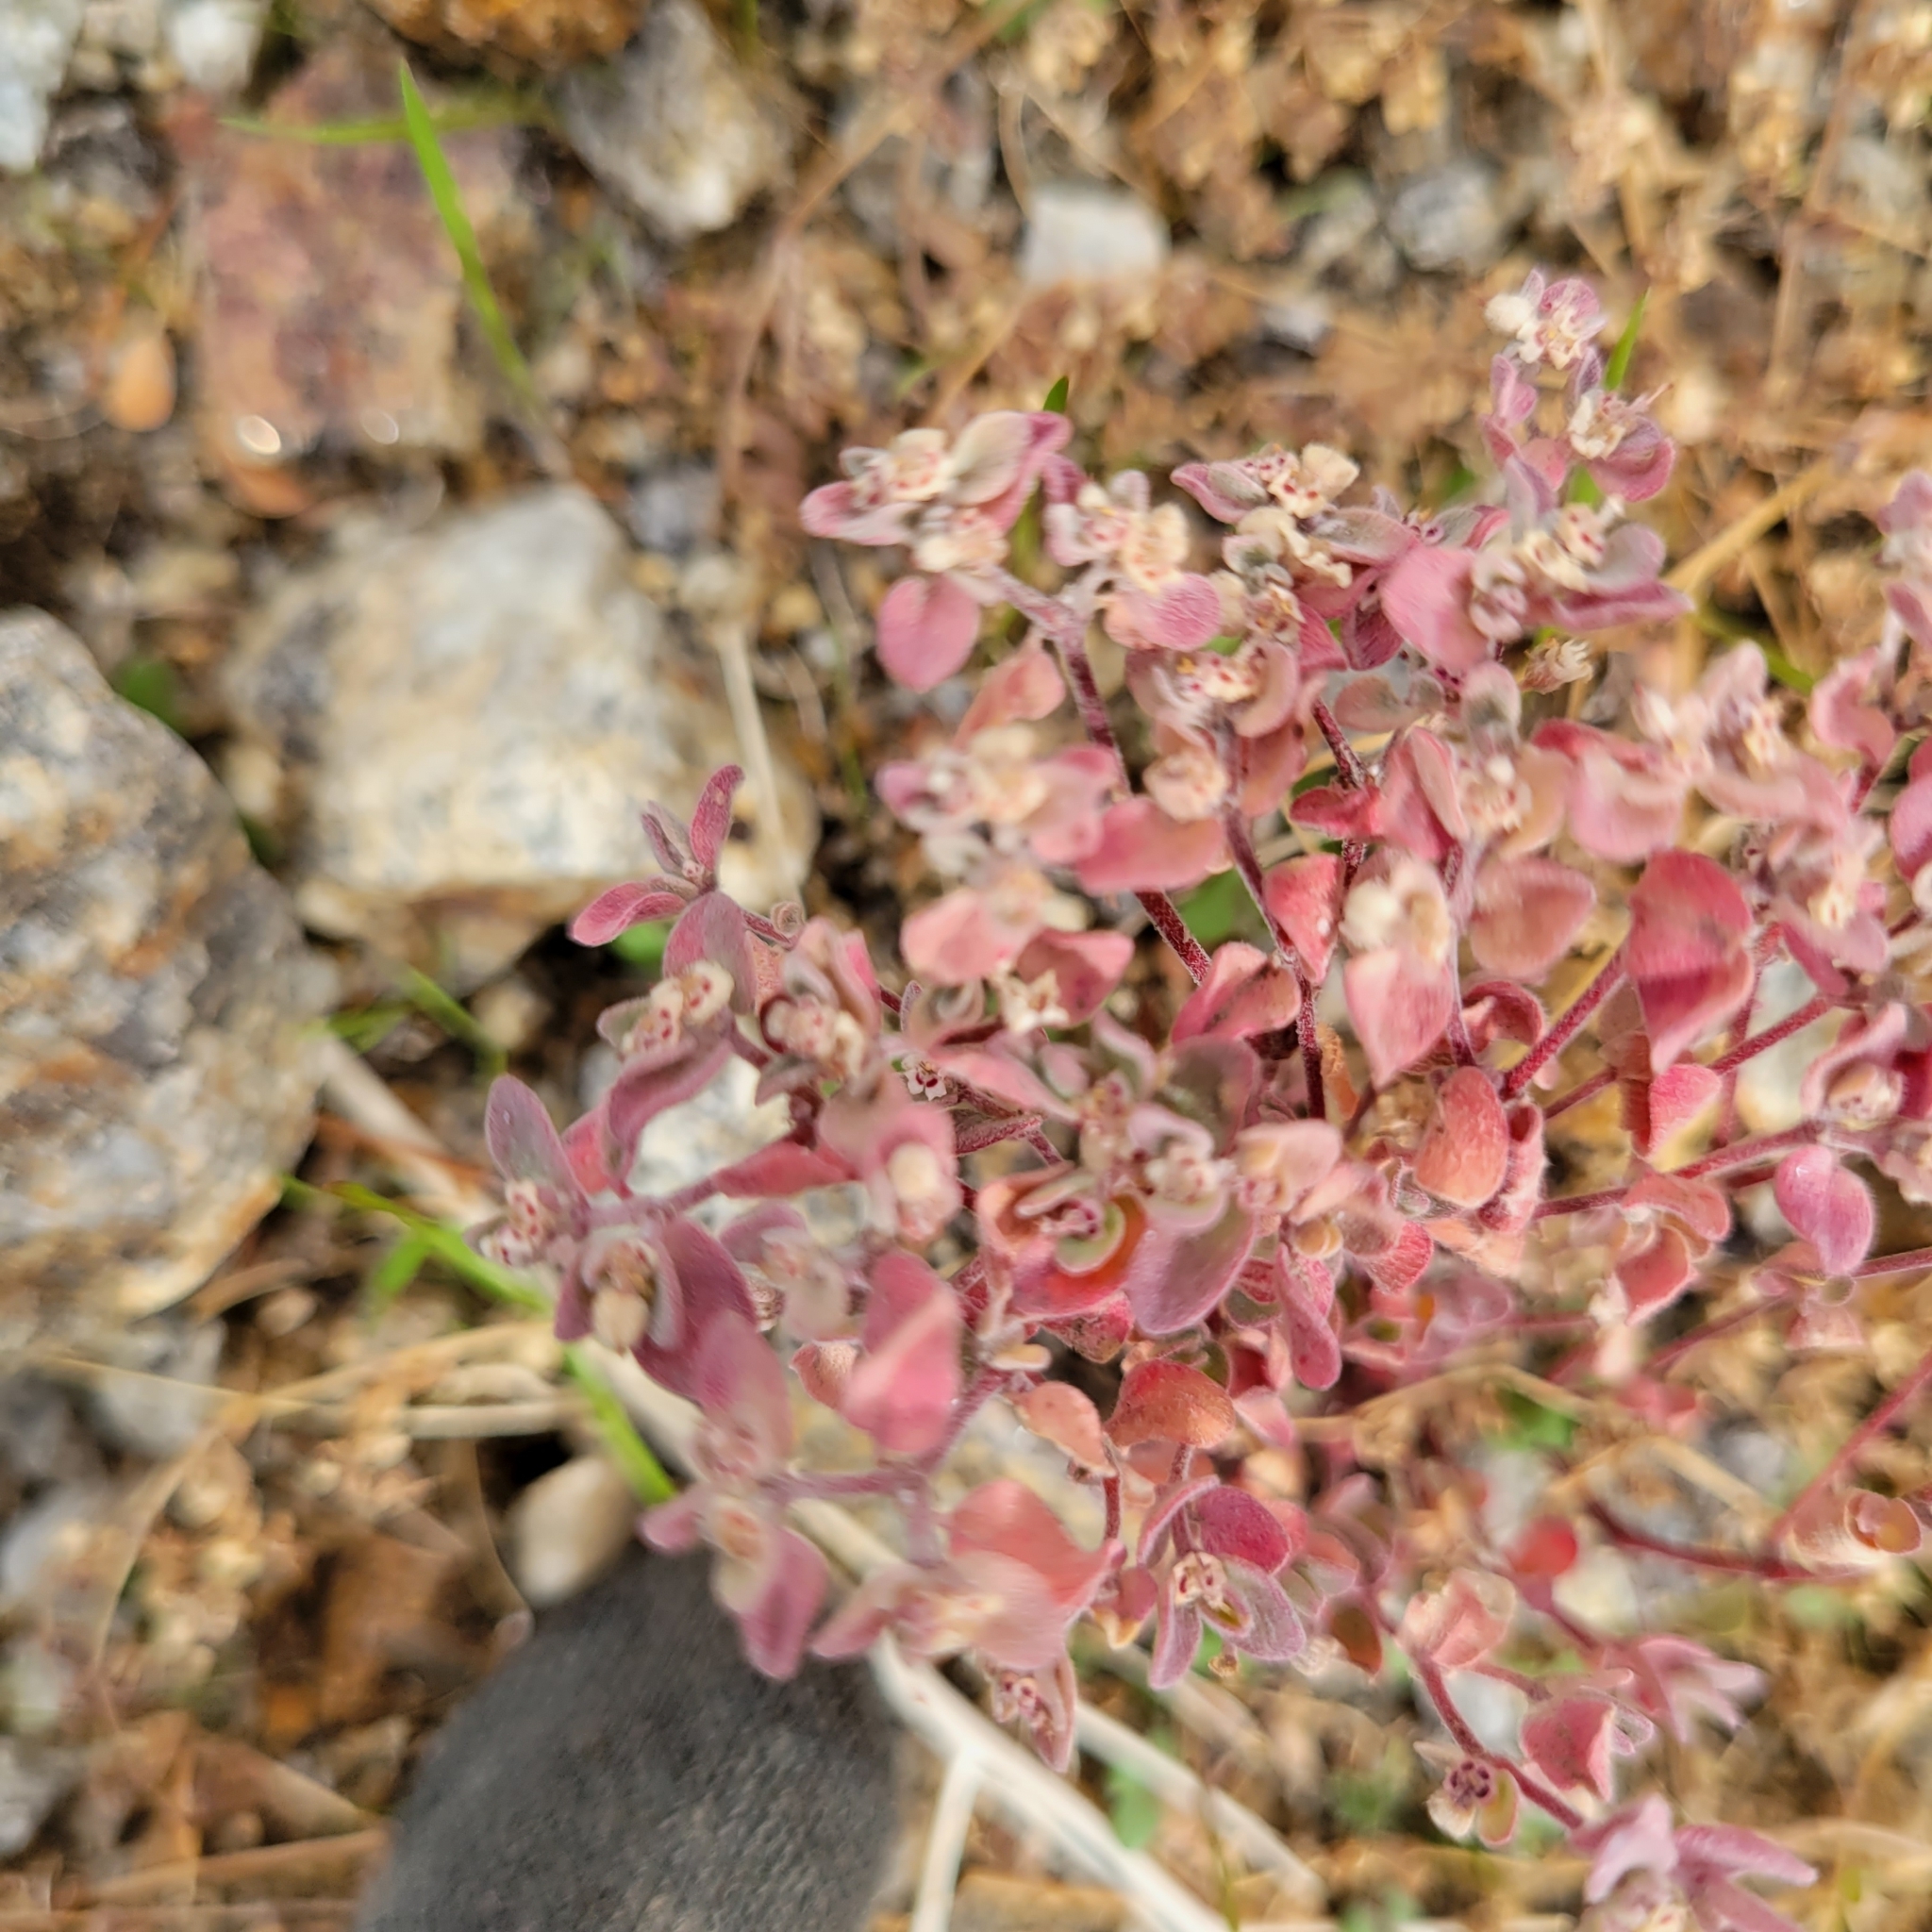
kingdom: Plantae
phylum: Tracheophyta
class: Magnoliopsida
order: Malpighiales
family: Euphorbiaceae
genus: Euphorbia
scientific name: Euphorbia melanadenia
